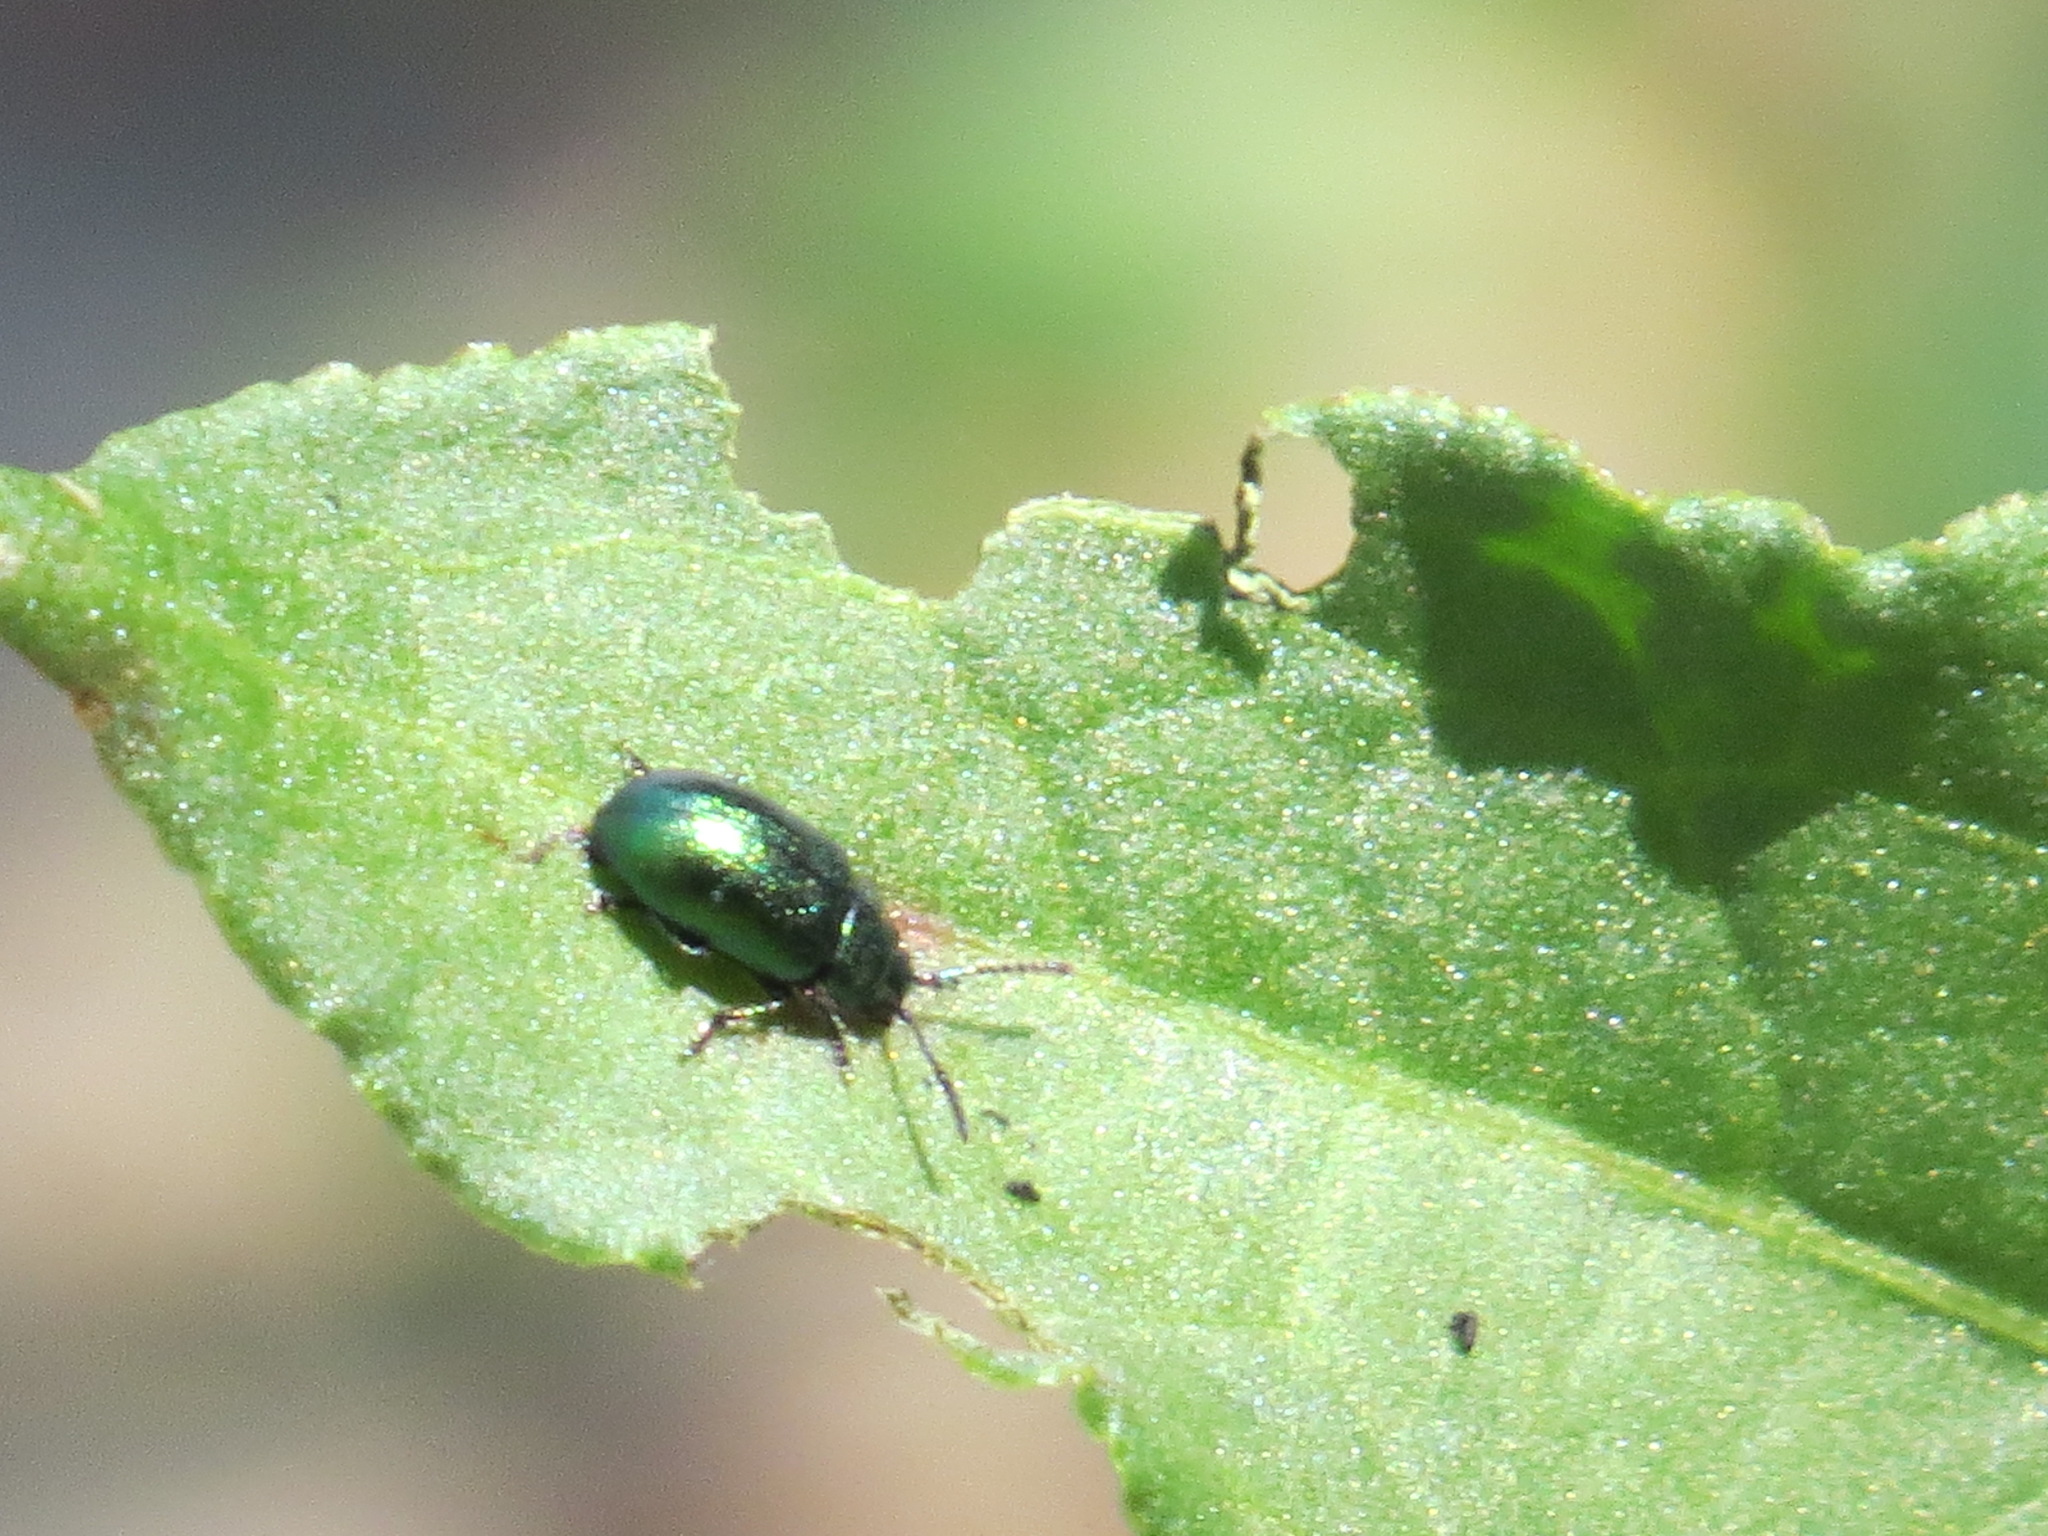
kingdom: Animalia
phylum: Arthropoda
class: Insecta
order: Coleoptera
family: Chrysomelidae
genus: Gastrophysa
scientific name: Gastrophysa cyanea
